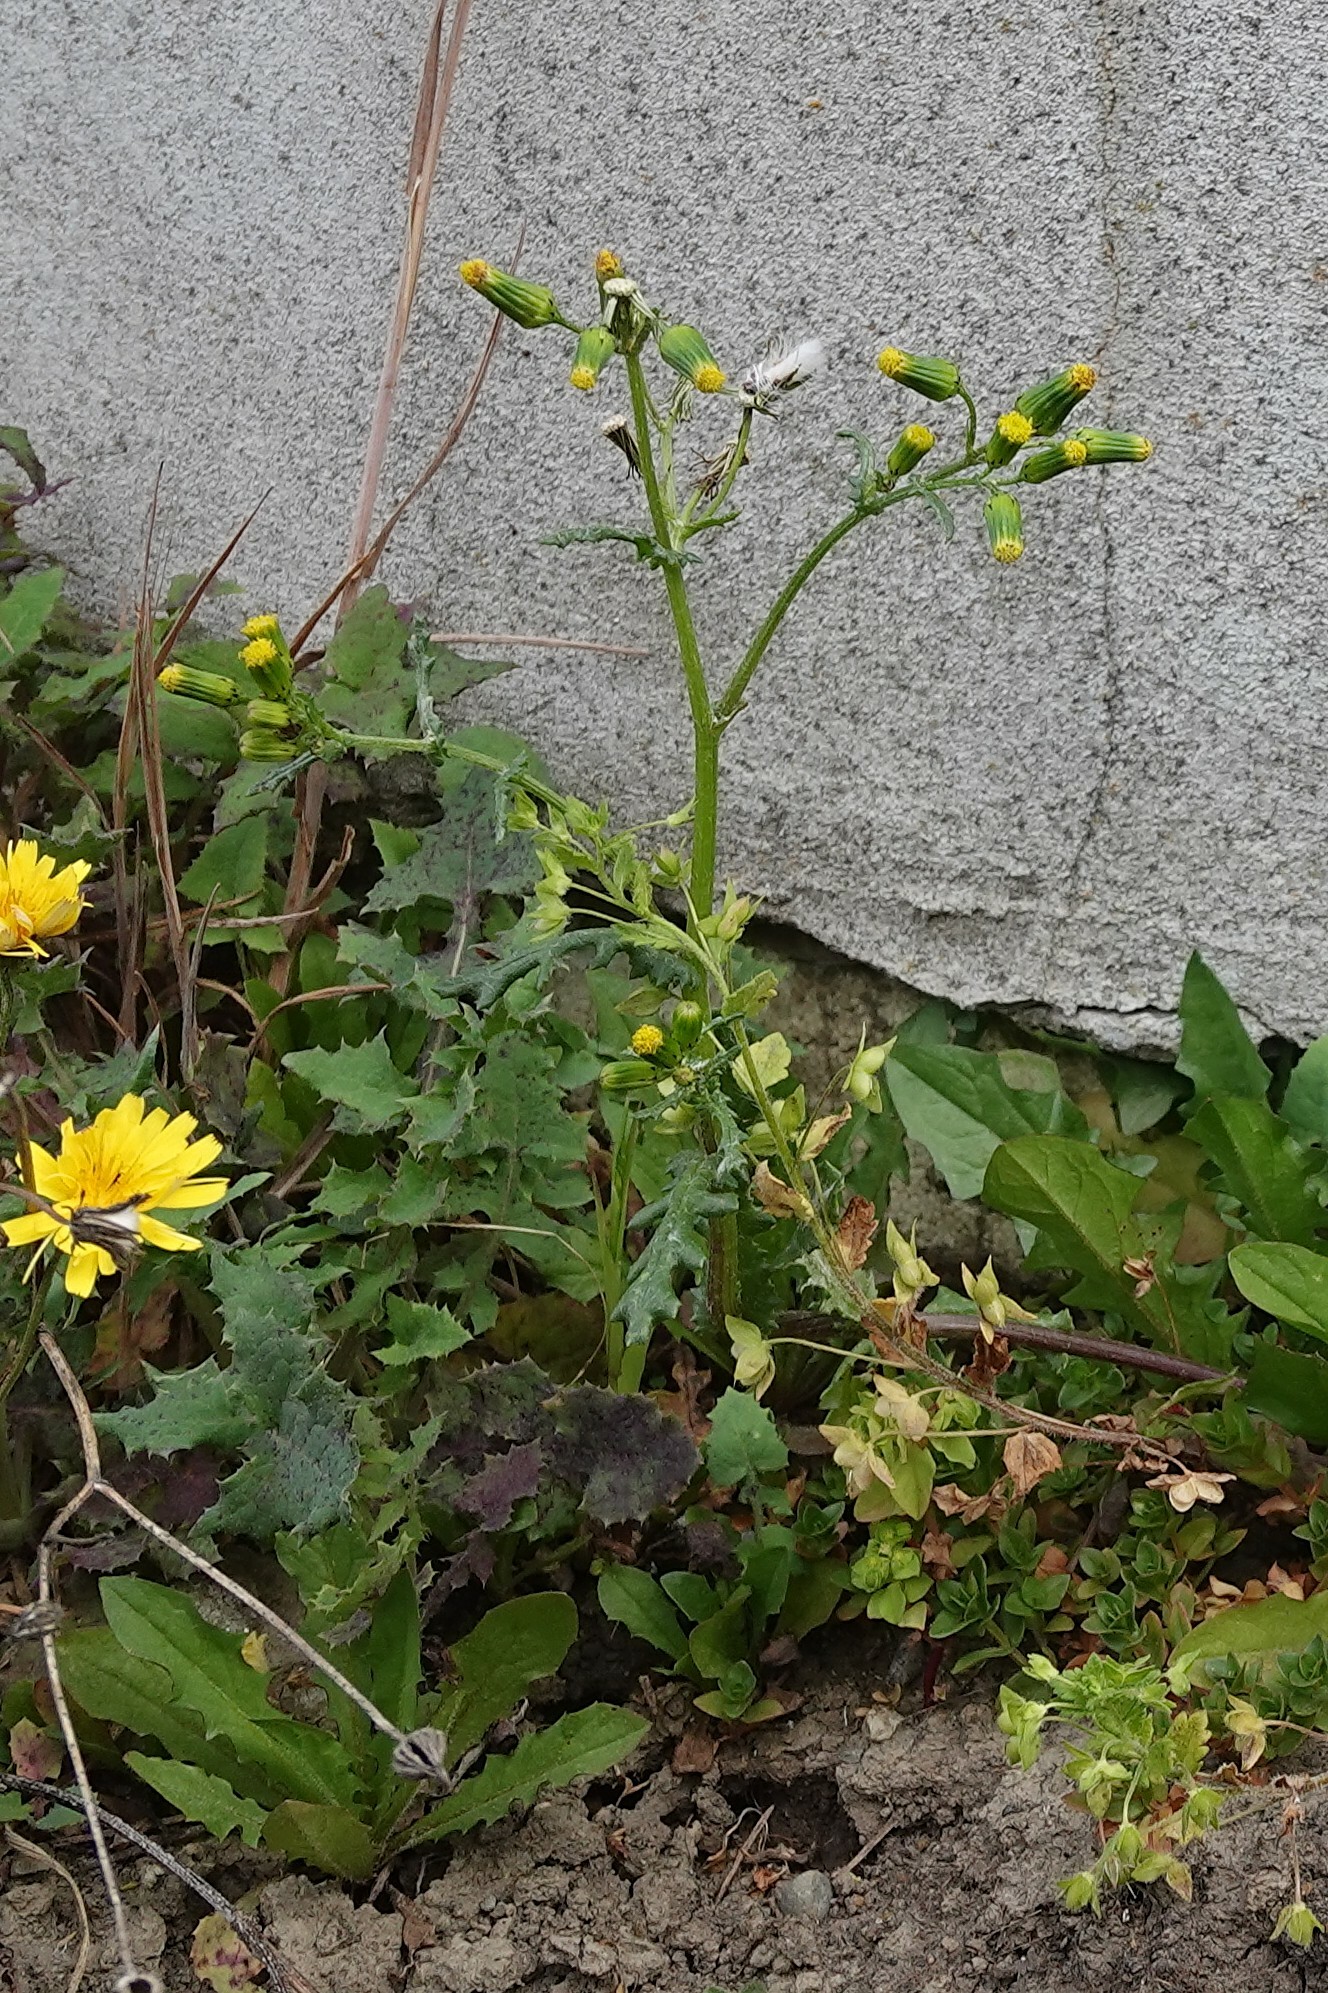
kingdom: Plantae
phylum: Tracheophyta
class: Magnoliopsida
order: Asterales
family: Asteraceae
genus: Senecio
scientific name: Senecio vulgaris
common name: Old-man-in-the-spring
